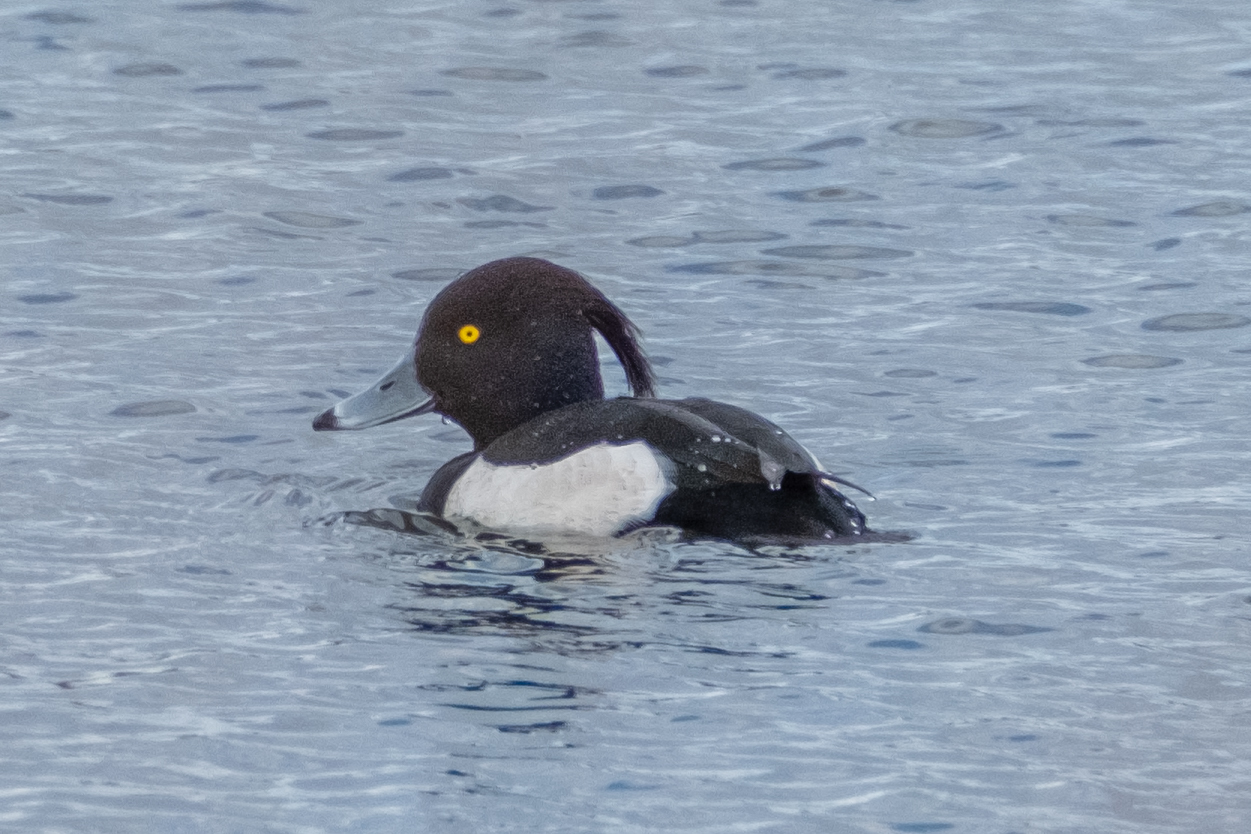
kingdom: Animalia
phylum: Chordata
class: Aves
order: Anseriformes
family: Anatidae
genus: Aythya
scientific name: Aythya fuligula
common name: Tufted duck
